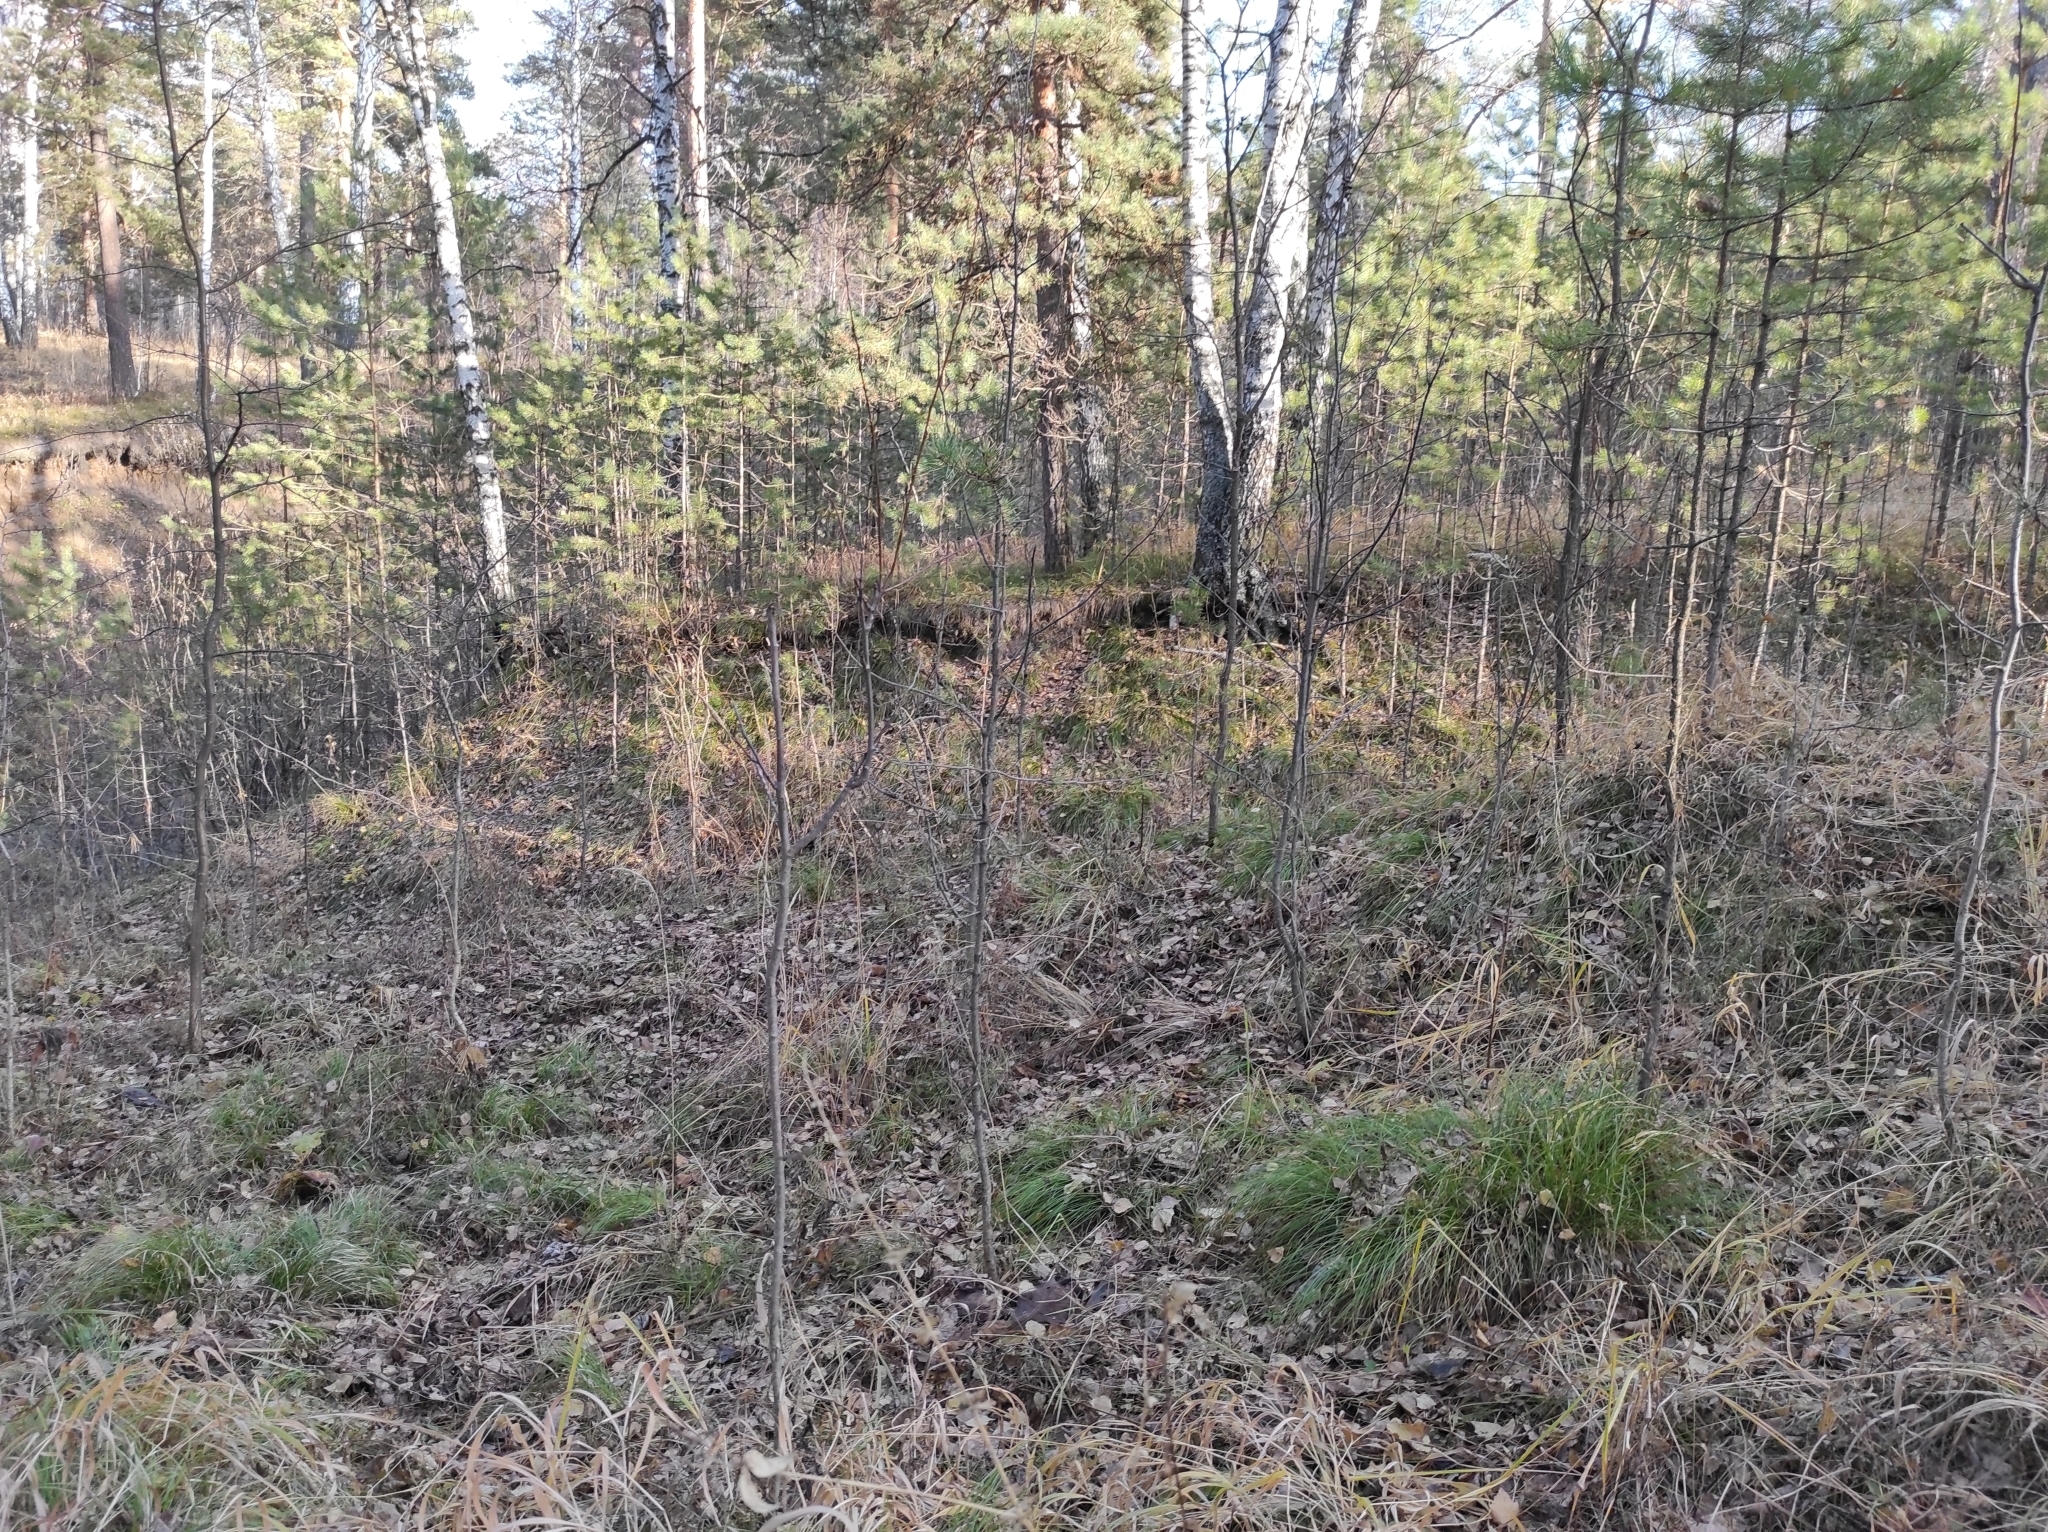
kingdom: Plantae
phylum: Tracheophyta
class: Pinopsida
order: Pinales
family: Pinaceae
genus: Pinus
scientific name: Pinus sylvestris
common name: Scots pine
